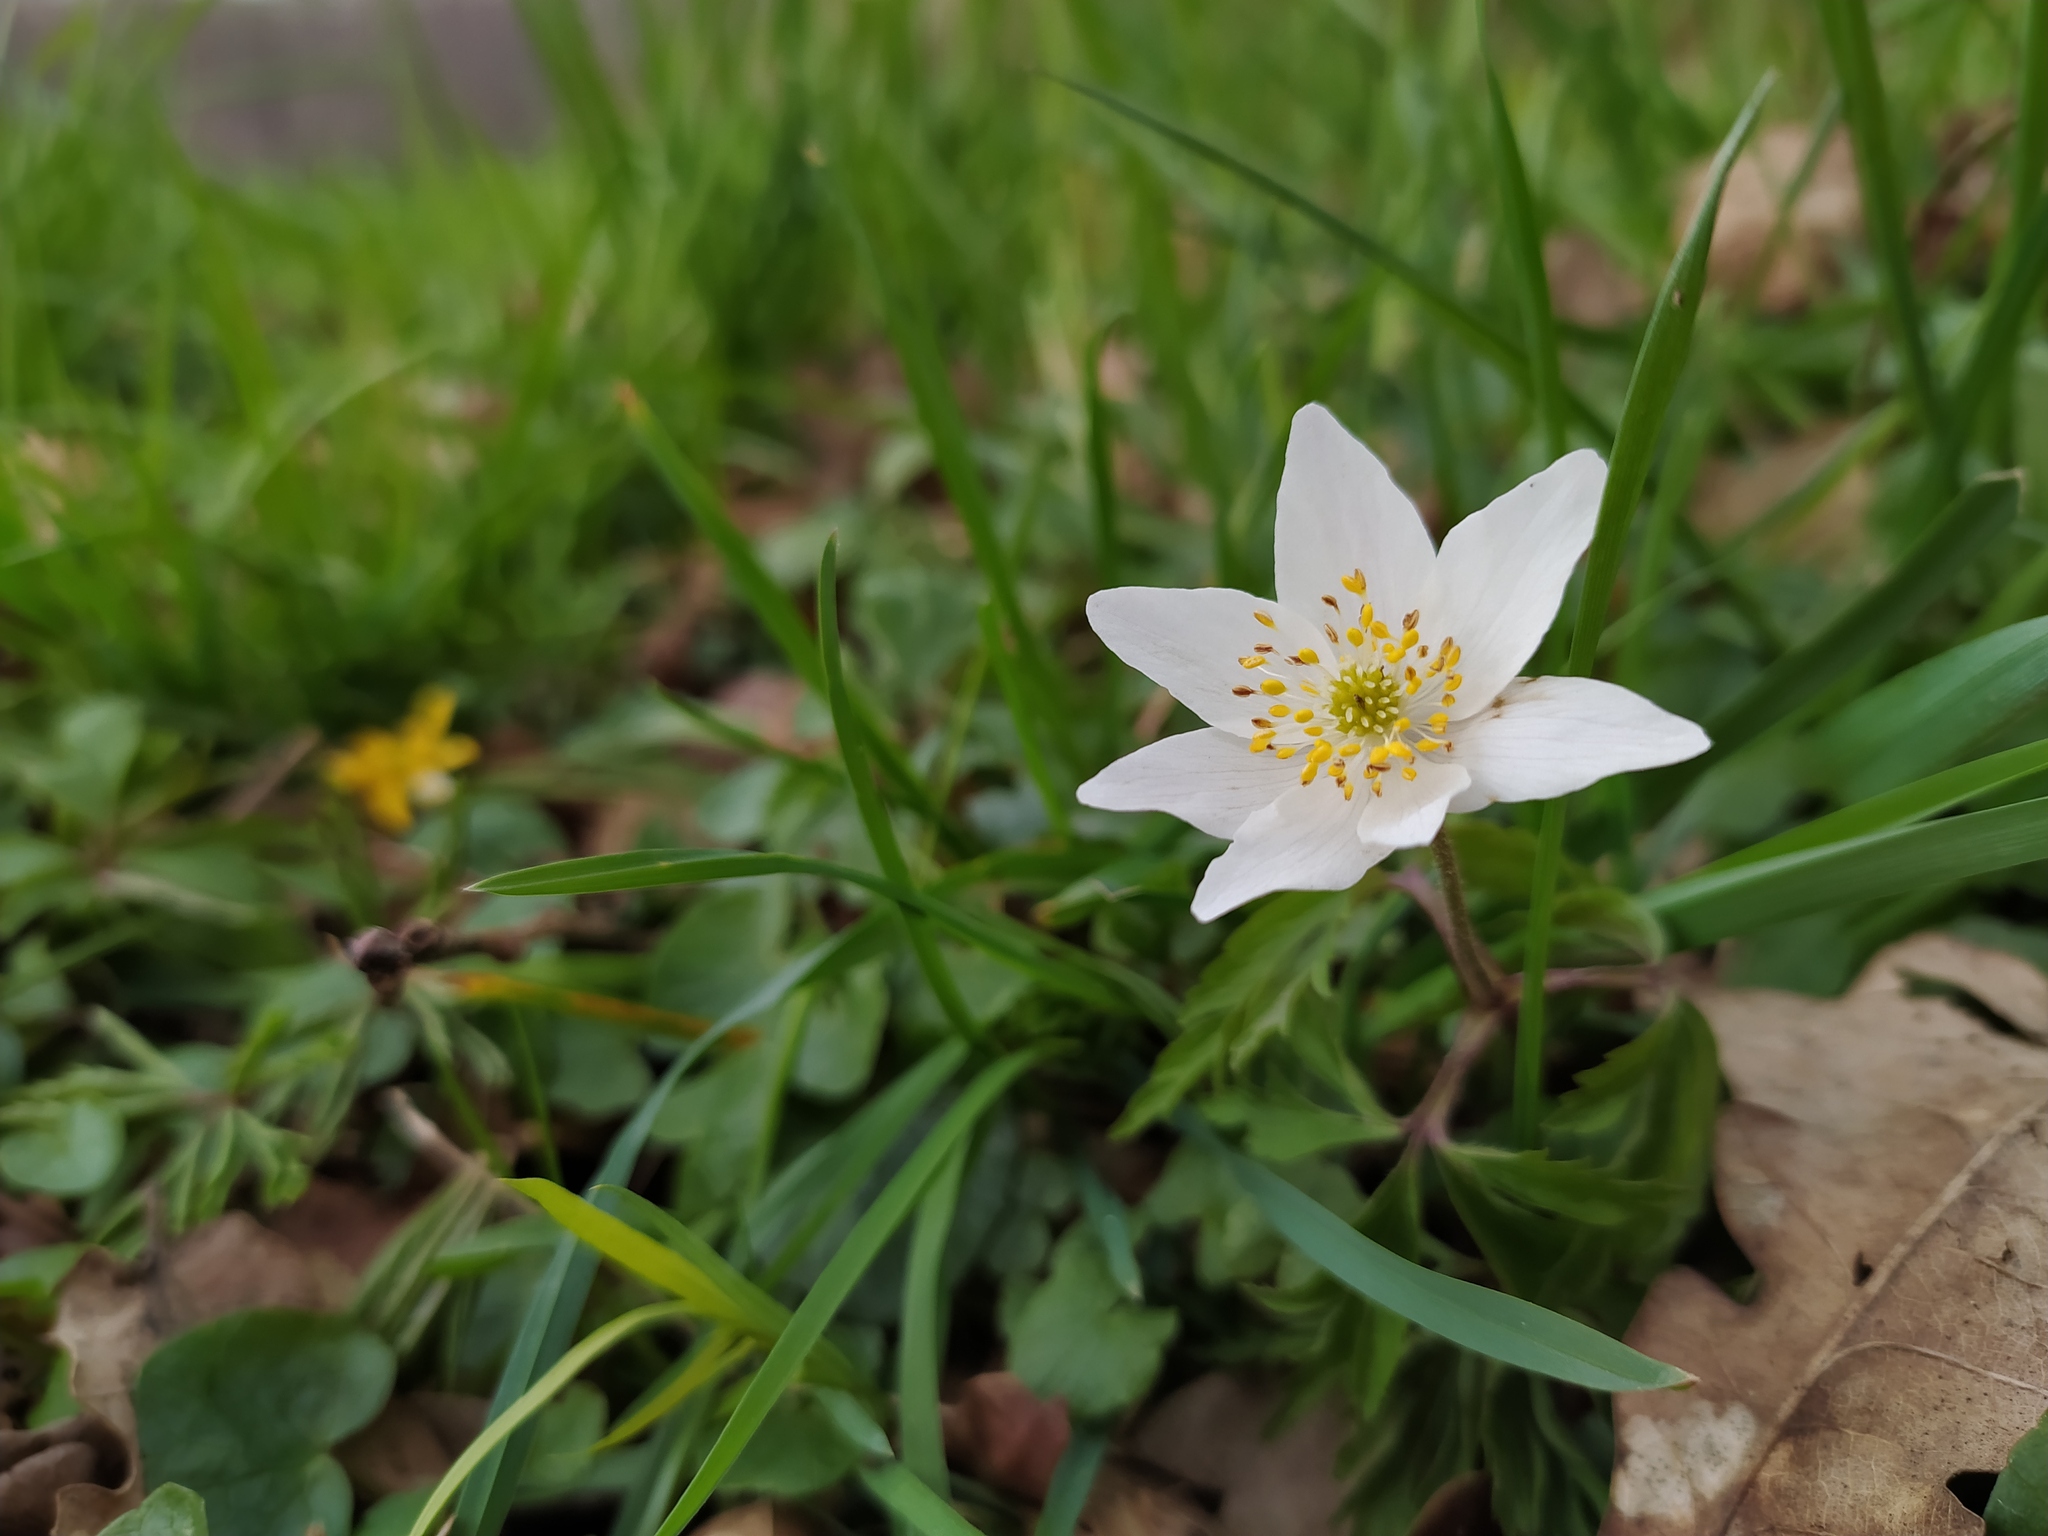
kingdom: Plantae
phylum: Tracheophyta
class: Magnoliopsida
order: Ranunculales
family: Ranunculaceae
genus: Anemone
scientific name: Anemone nemorosa
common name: Wood anemone
